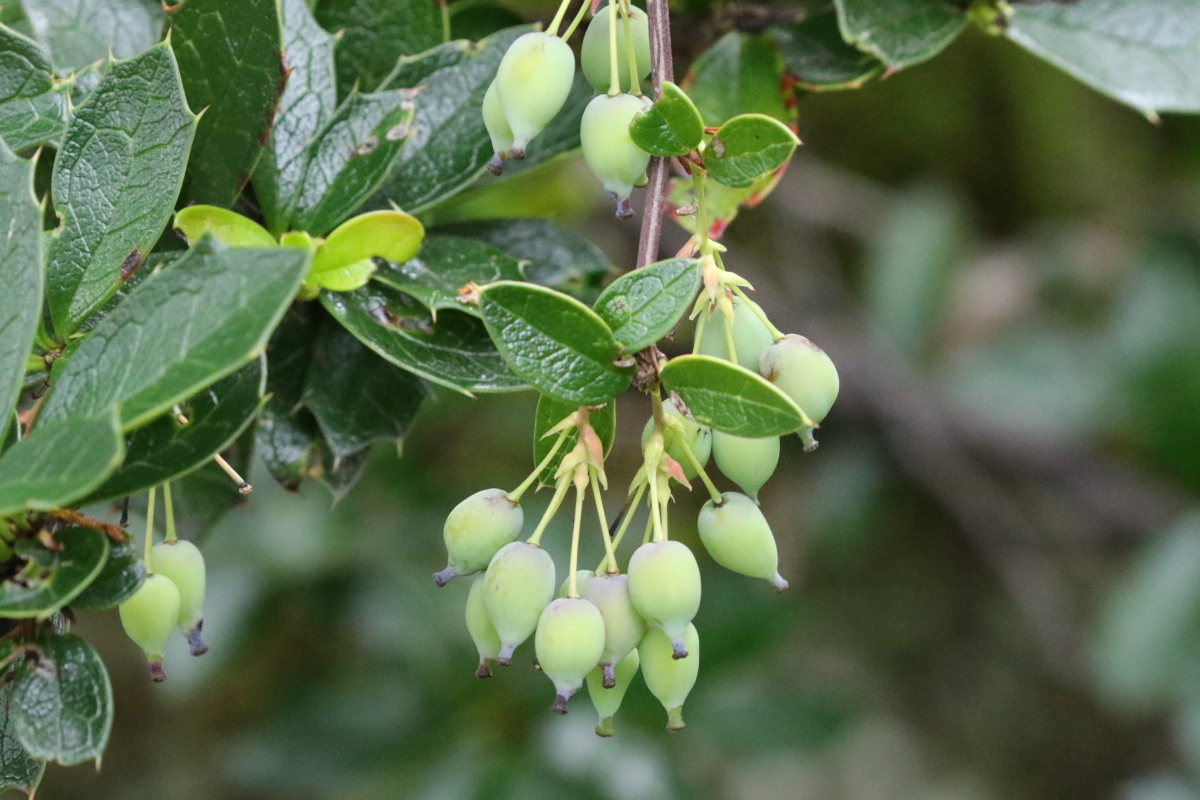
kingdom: Plantae
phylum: Tracheophyta
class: Magnoliopsida
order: Ranunculales
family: Berberidaceae
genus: Berberis
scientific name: Berberis ilicifolia
